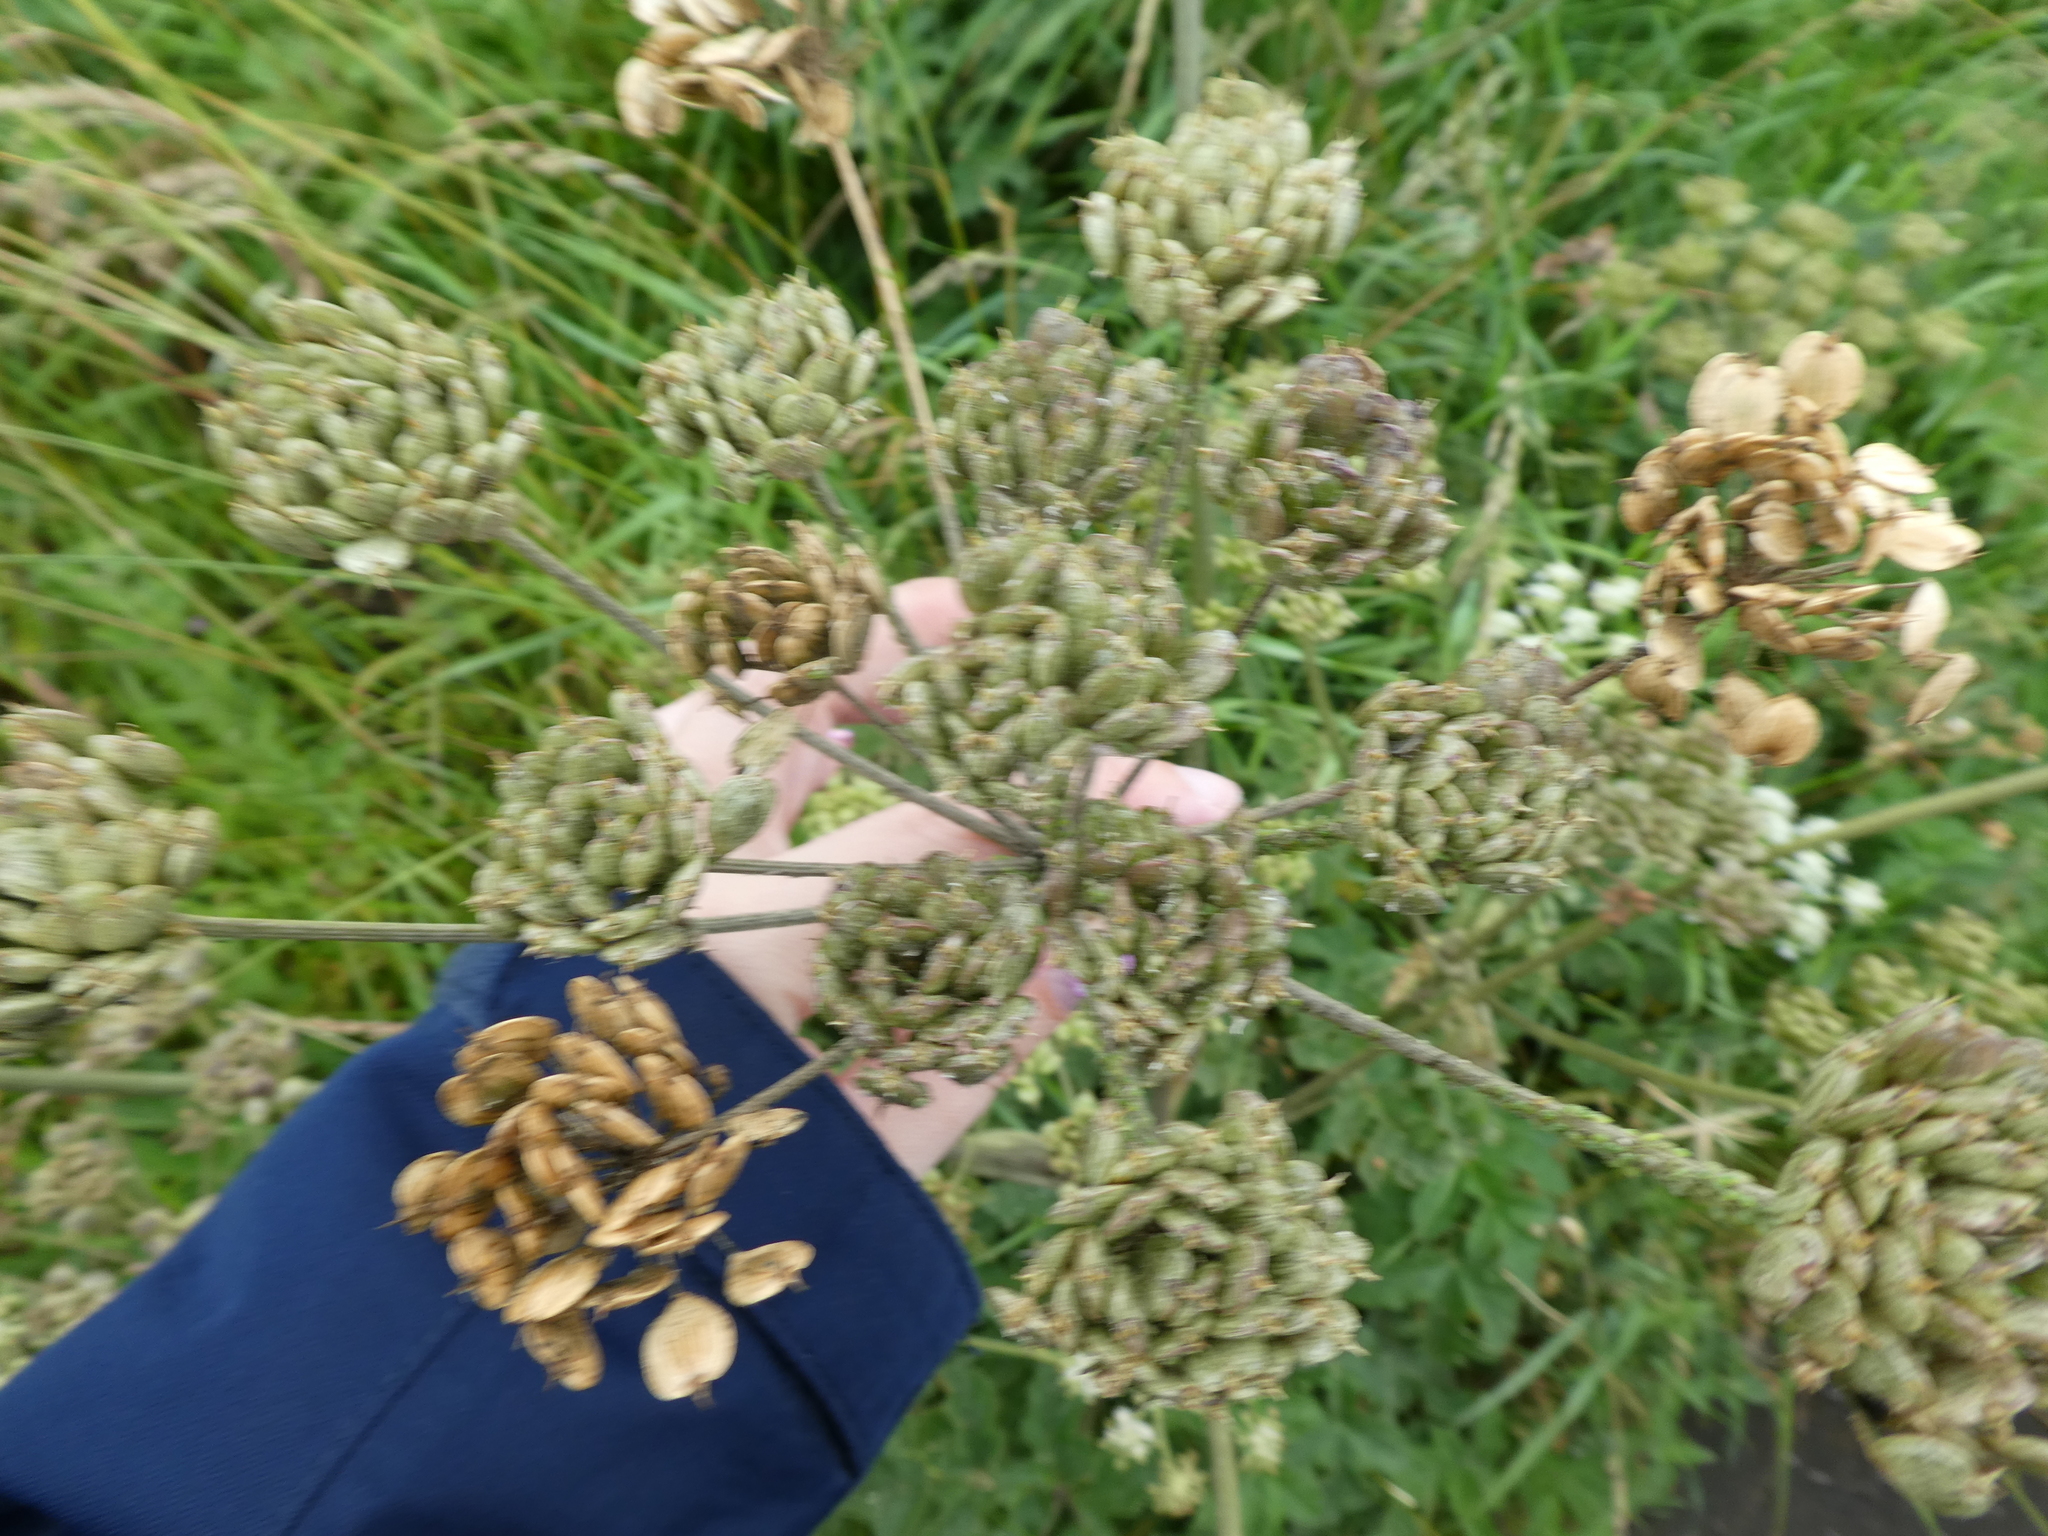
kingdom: Plantae
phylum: Tracheophyta
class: Magnoliopsida
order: Apiales
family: Apiaceae
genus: Heracleum
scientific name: Heracleum sphondylium
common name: Hogweed
